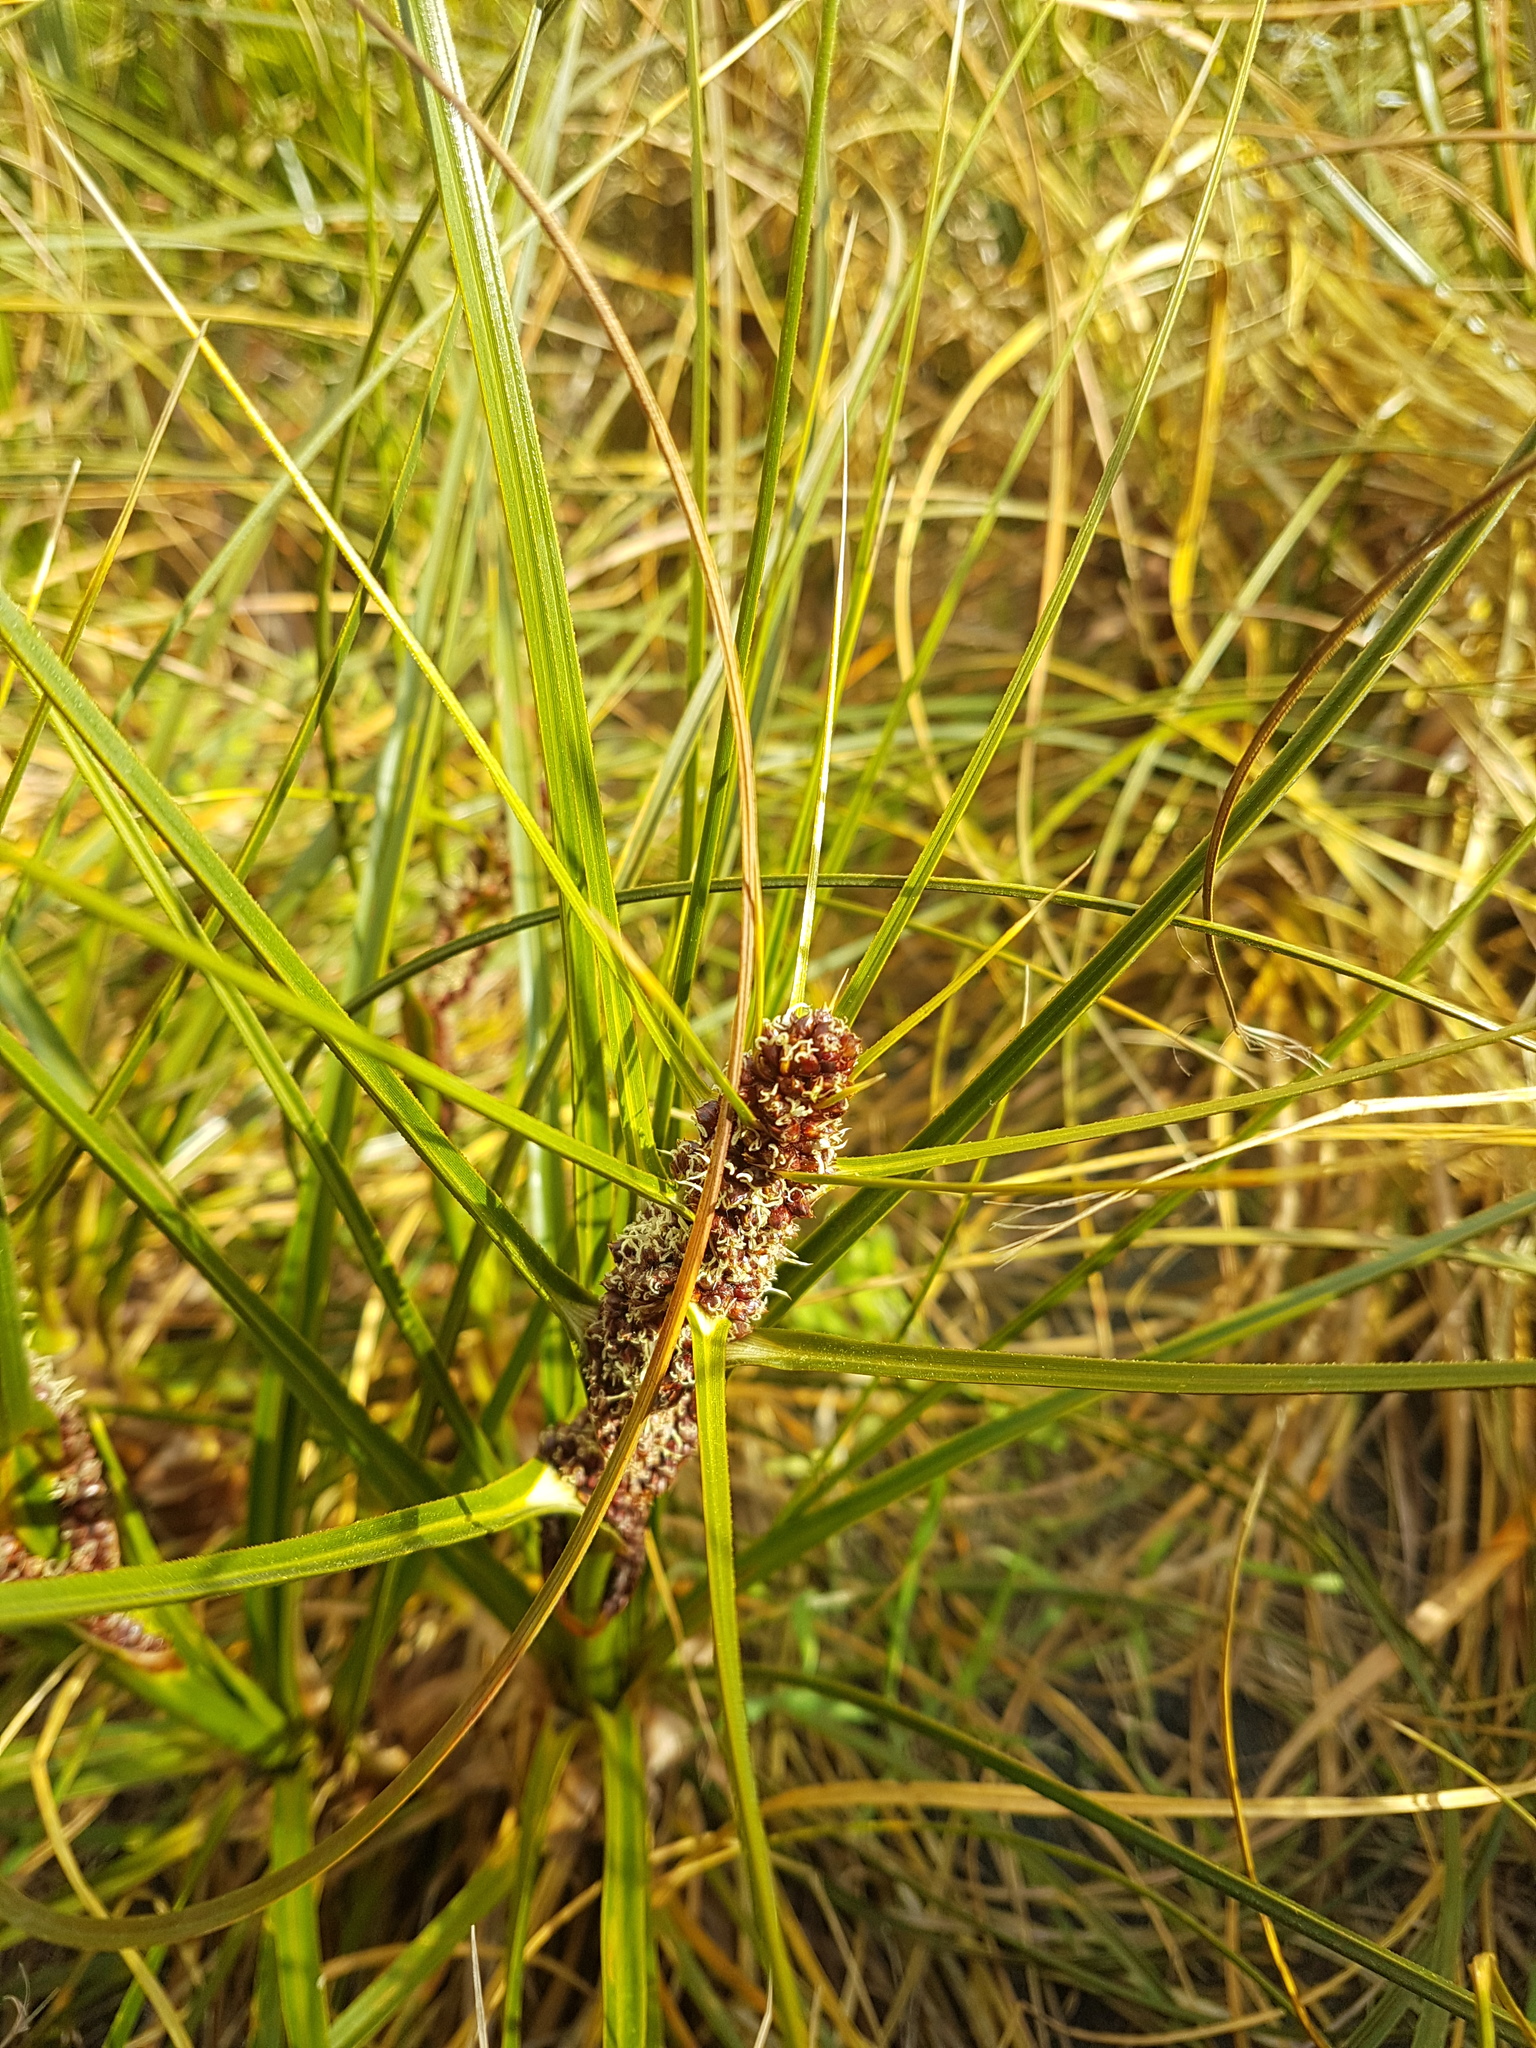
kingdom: Plantae
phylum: Tracheophyta
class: Liliopsida
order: Poales
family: Cyperaceae
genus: Ficinia
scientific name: Ficinia spiralis
